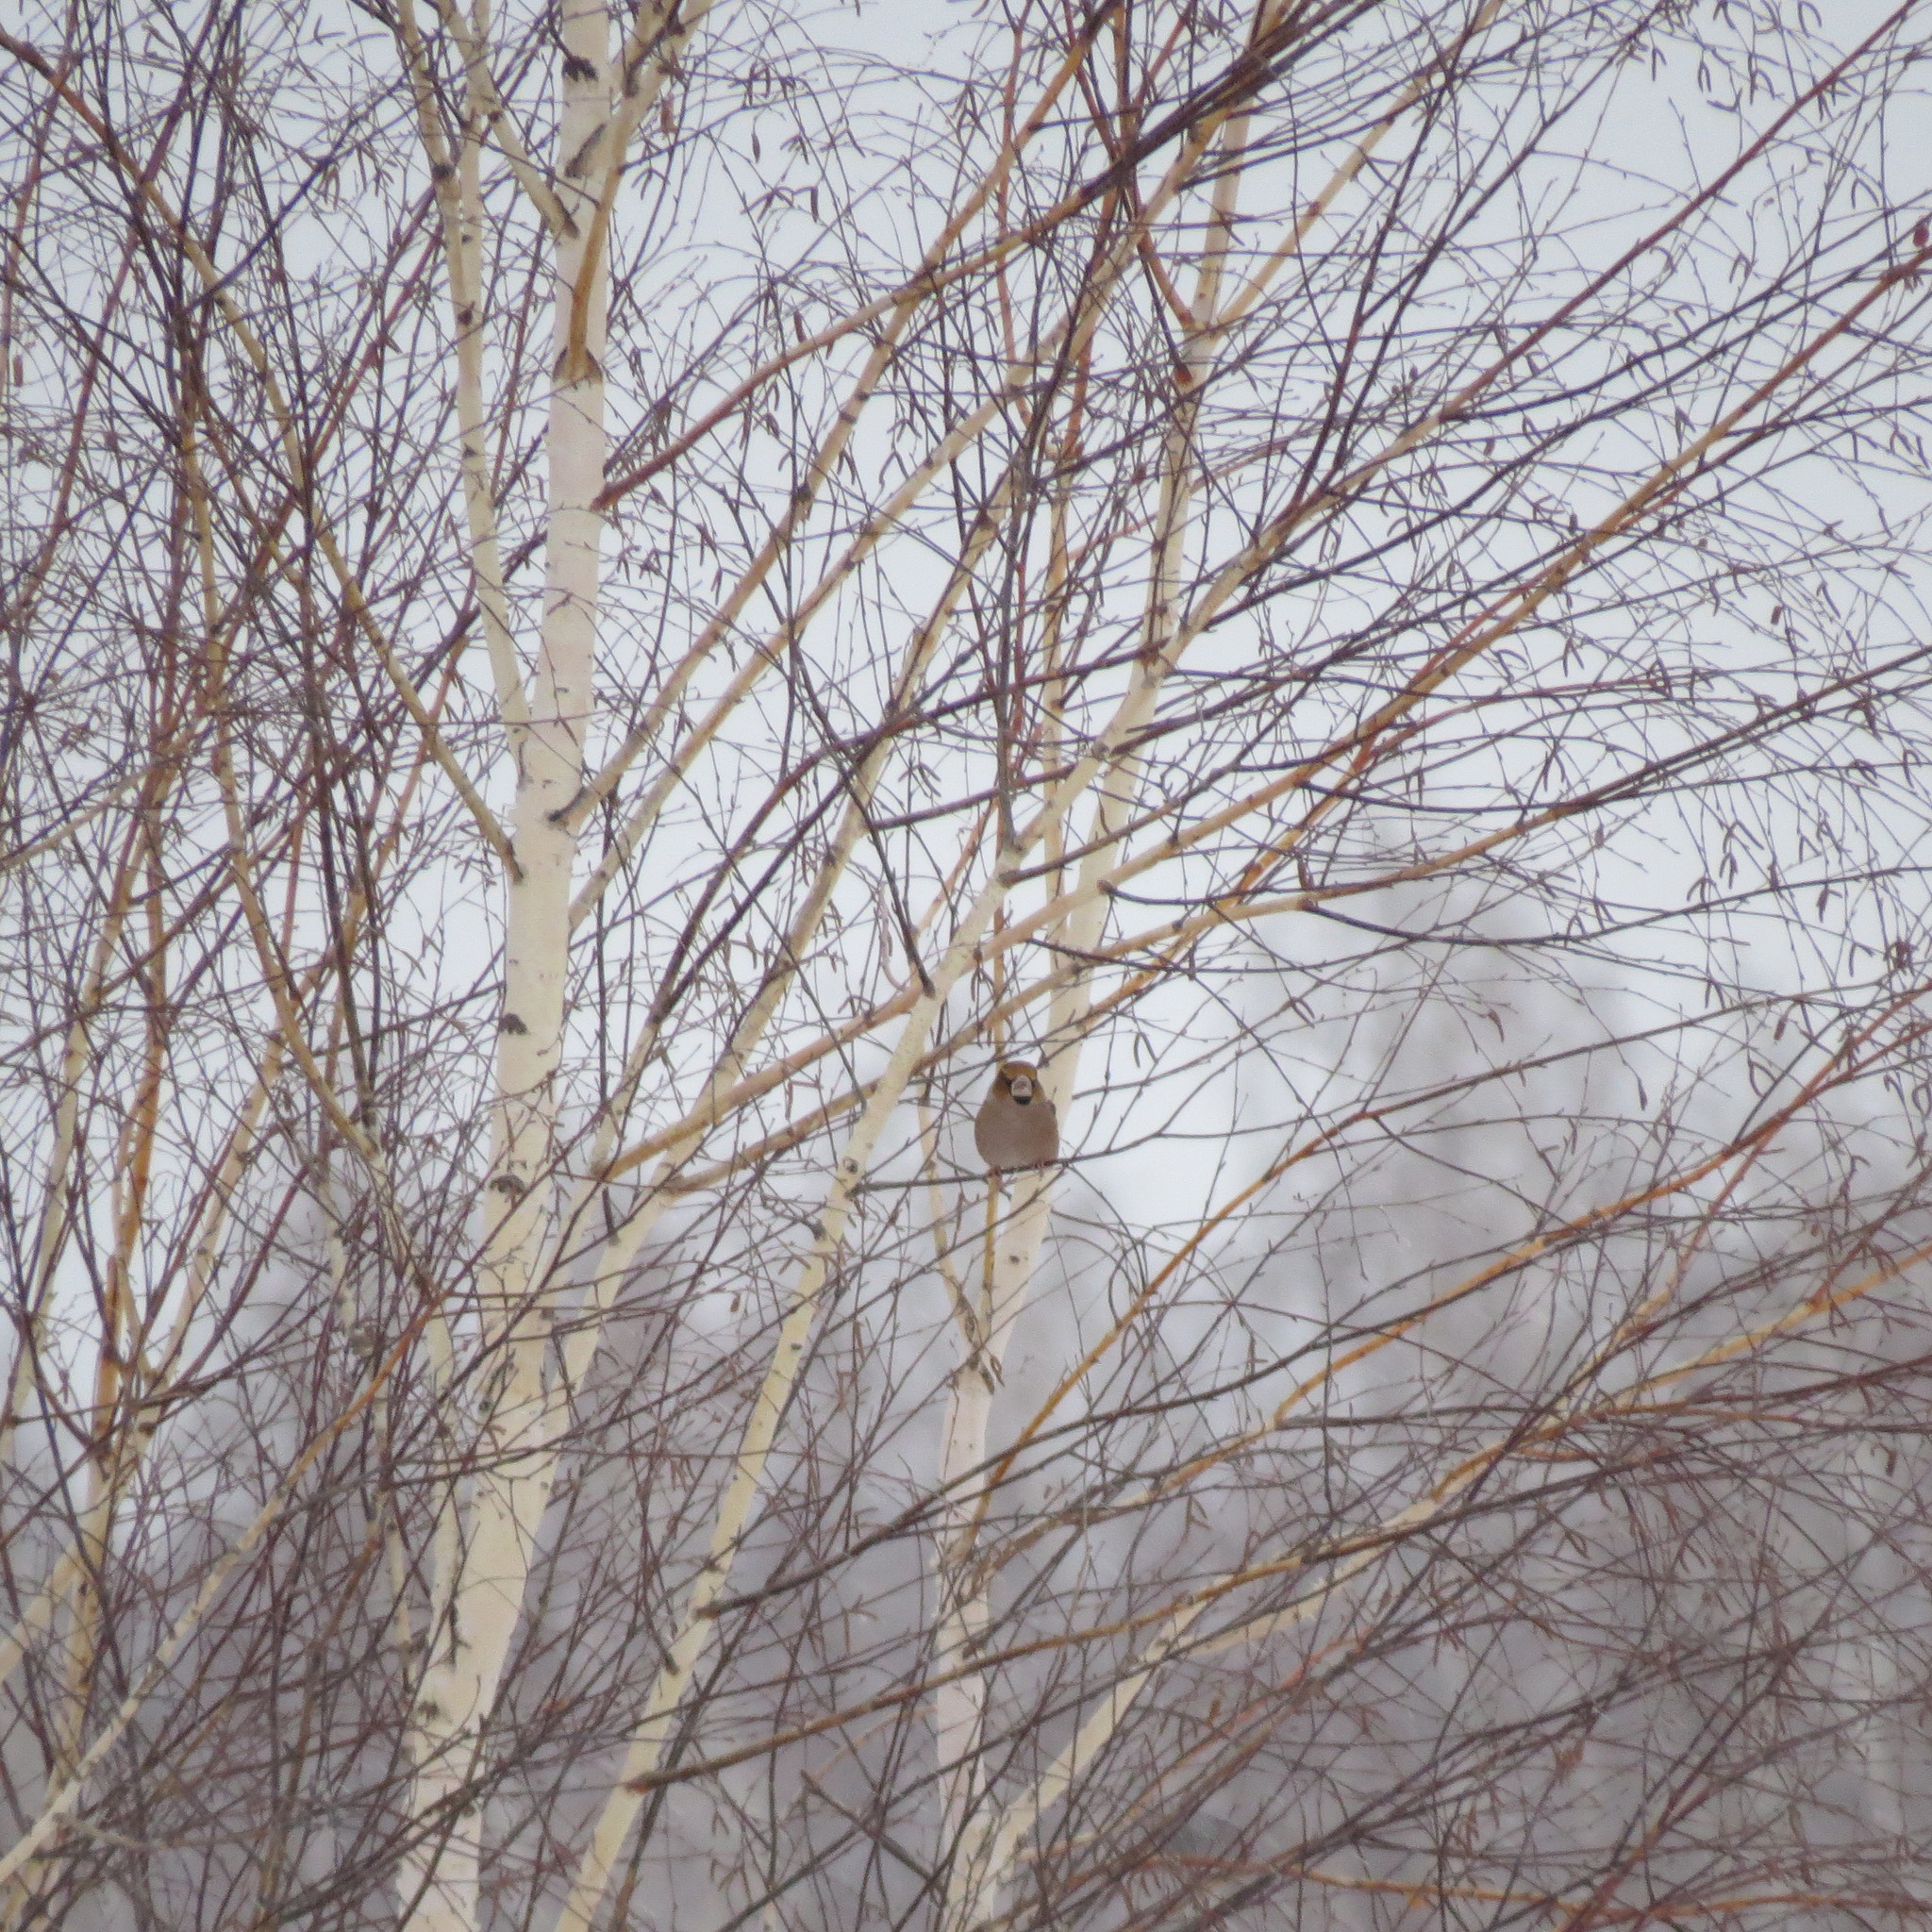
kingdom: Animalia
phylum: Chordata
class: Aves
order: Passeriformes
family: Fringillidae
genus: Coccothraustes
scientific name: Coccothraustes coccothraustes
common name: Hawfinch
